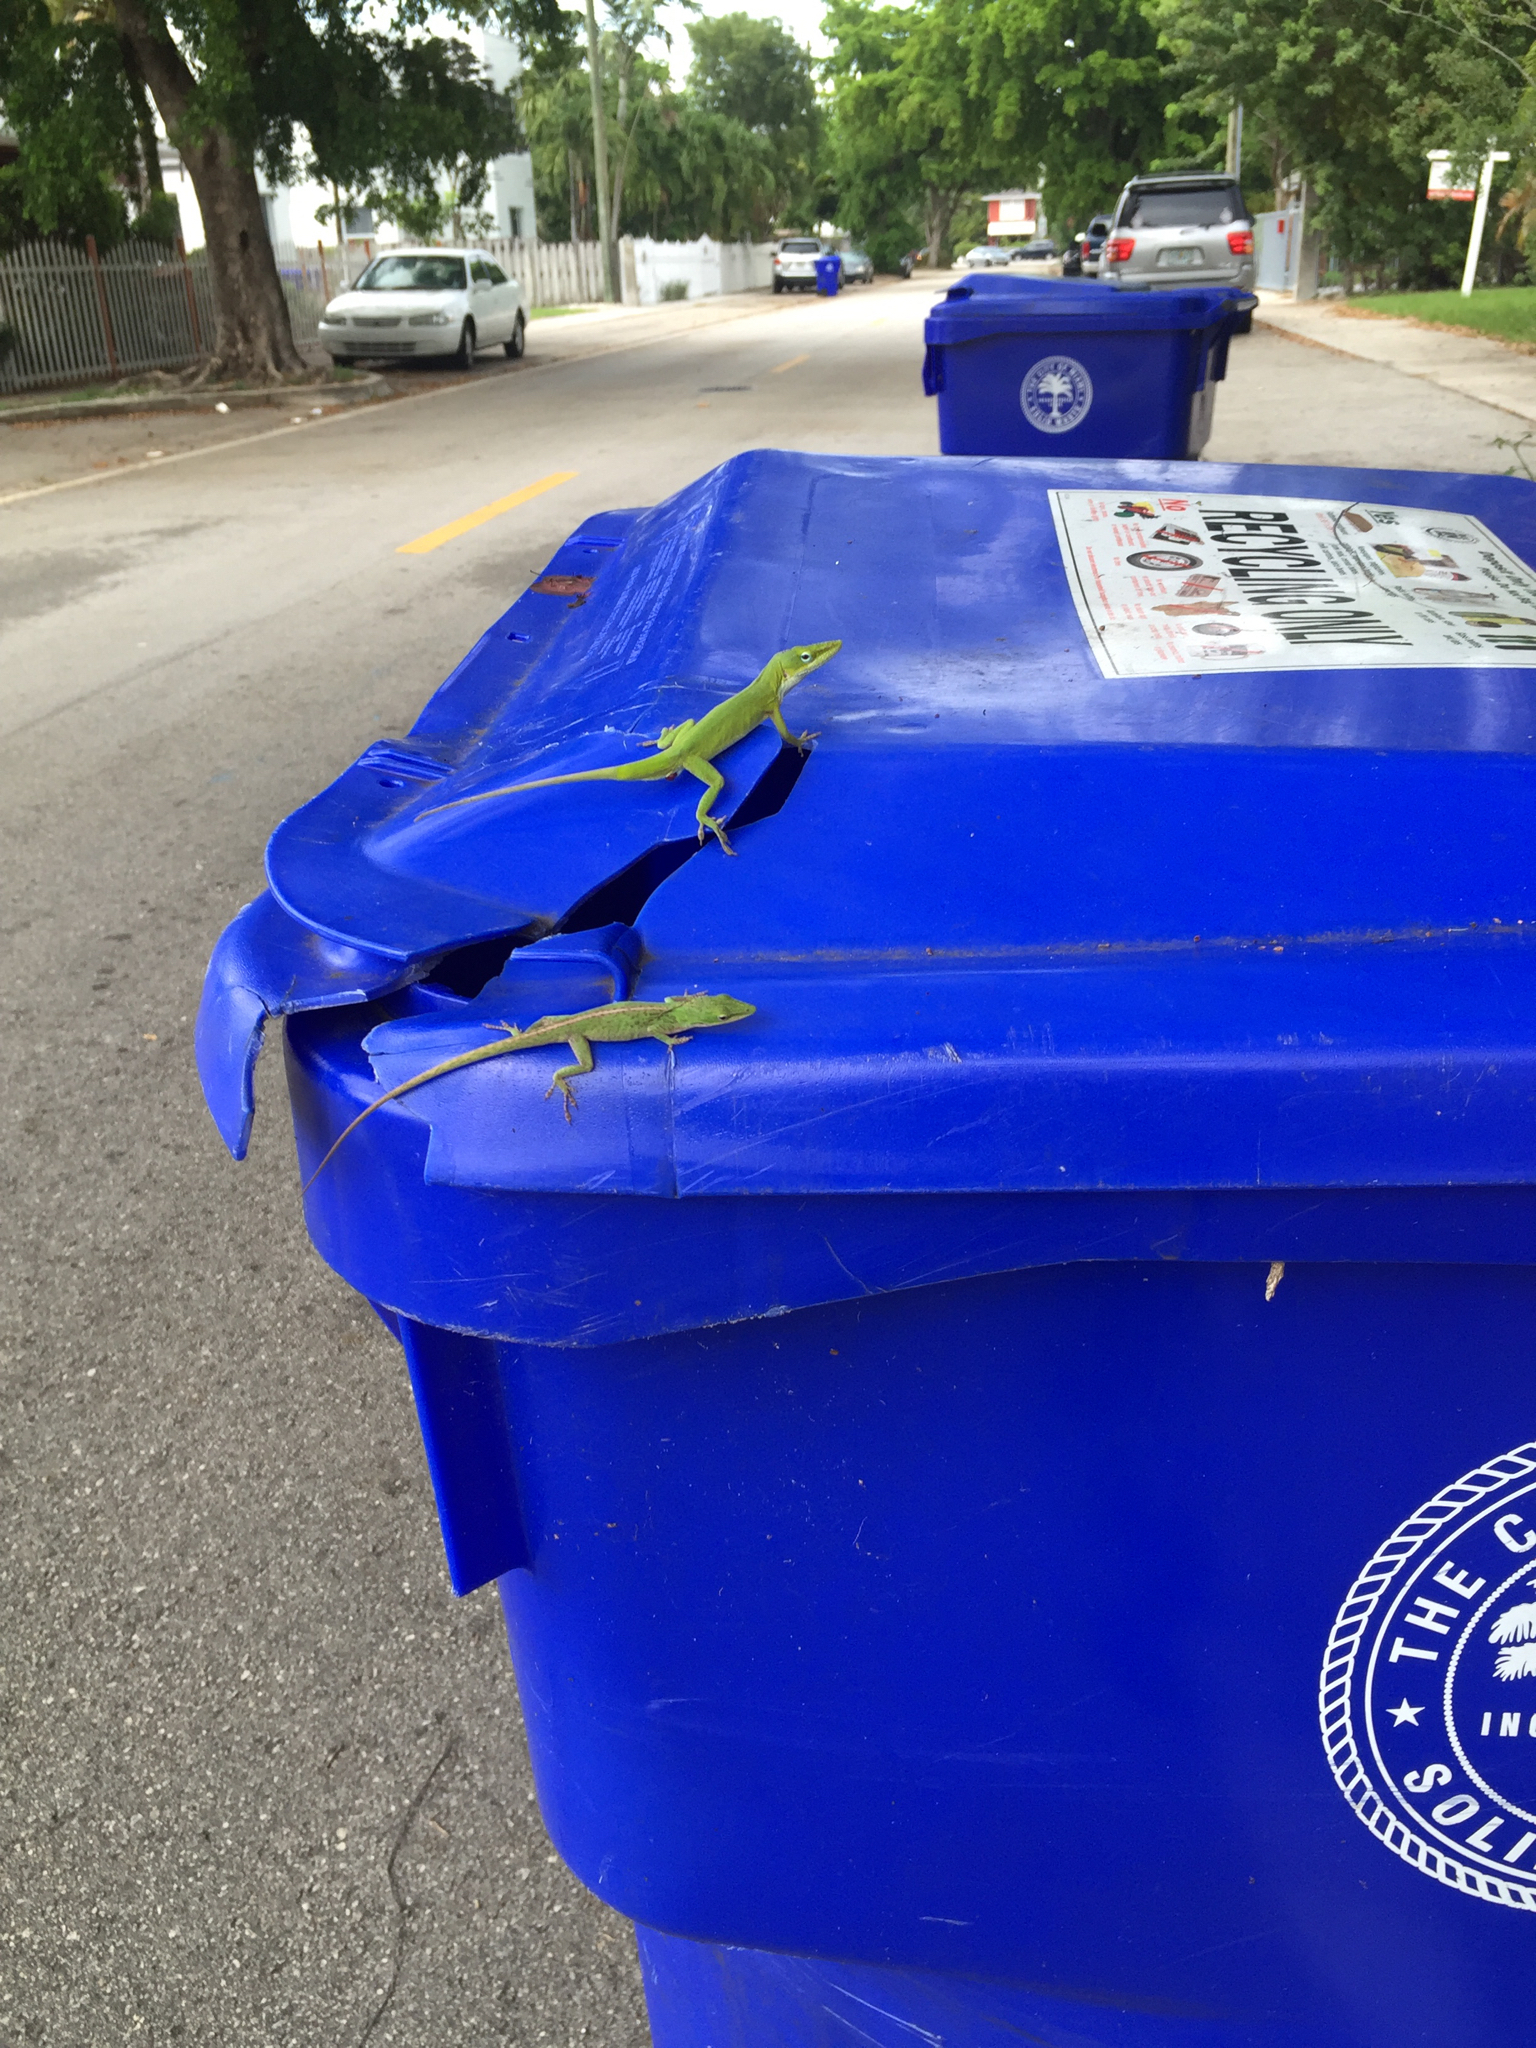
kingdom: Animalia
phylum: Chordata
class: Squamata
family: Dactyloidae
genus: Anolis
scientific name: Anolis carolinensis
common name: Green anole
